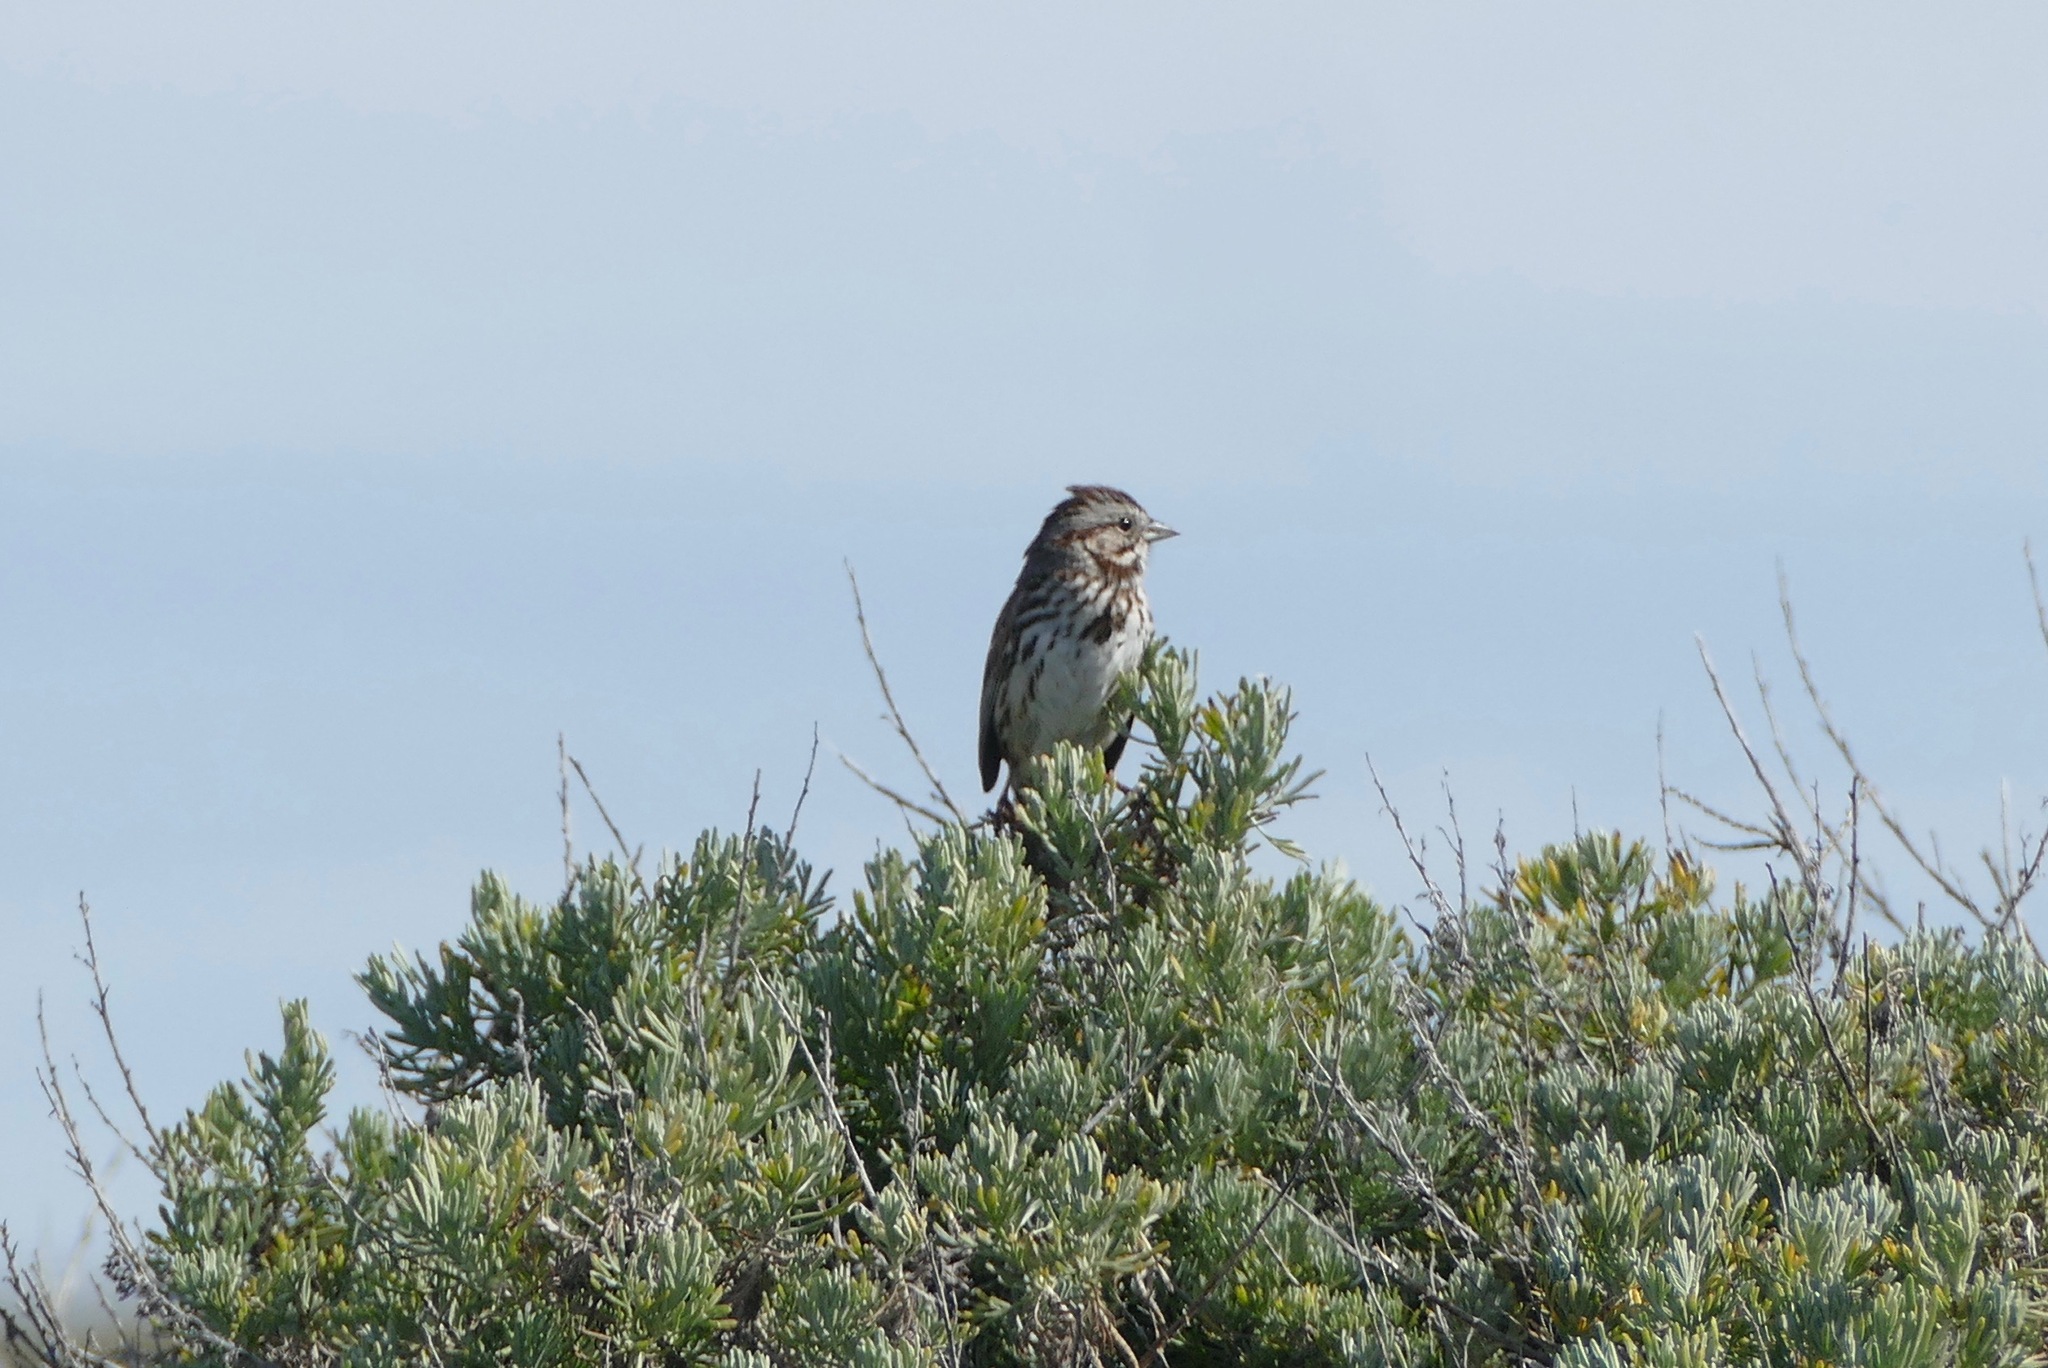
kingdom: Animalia
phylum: Chordata
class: Aves
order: Passeriformes
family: Passerellidae
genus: Melospiza
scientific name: Melospiza melodia
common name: Song sparrow
